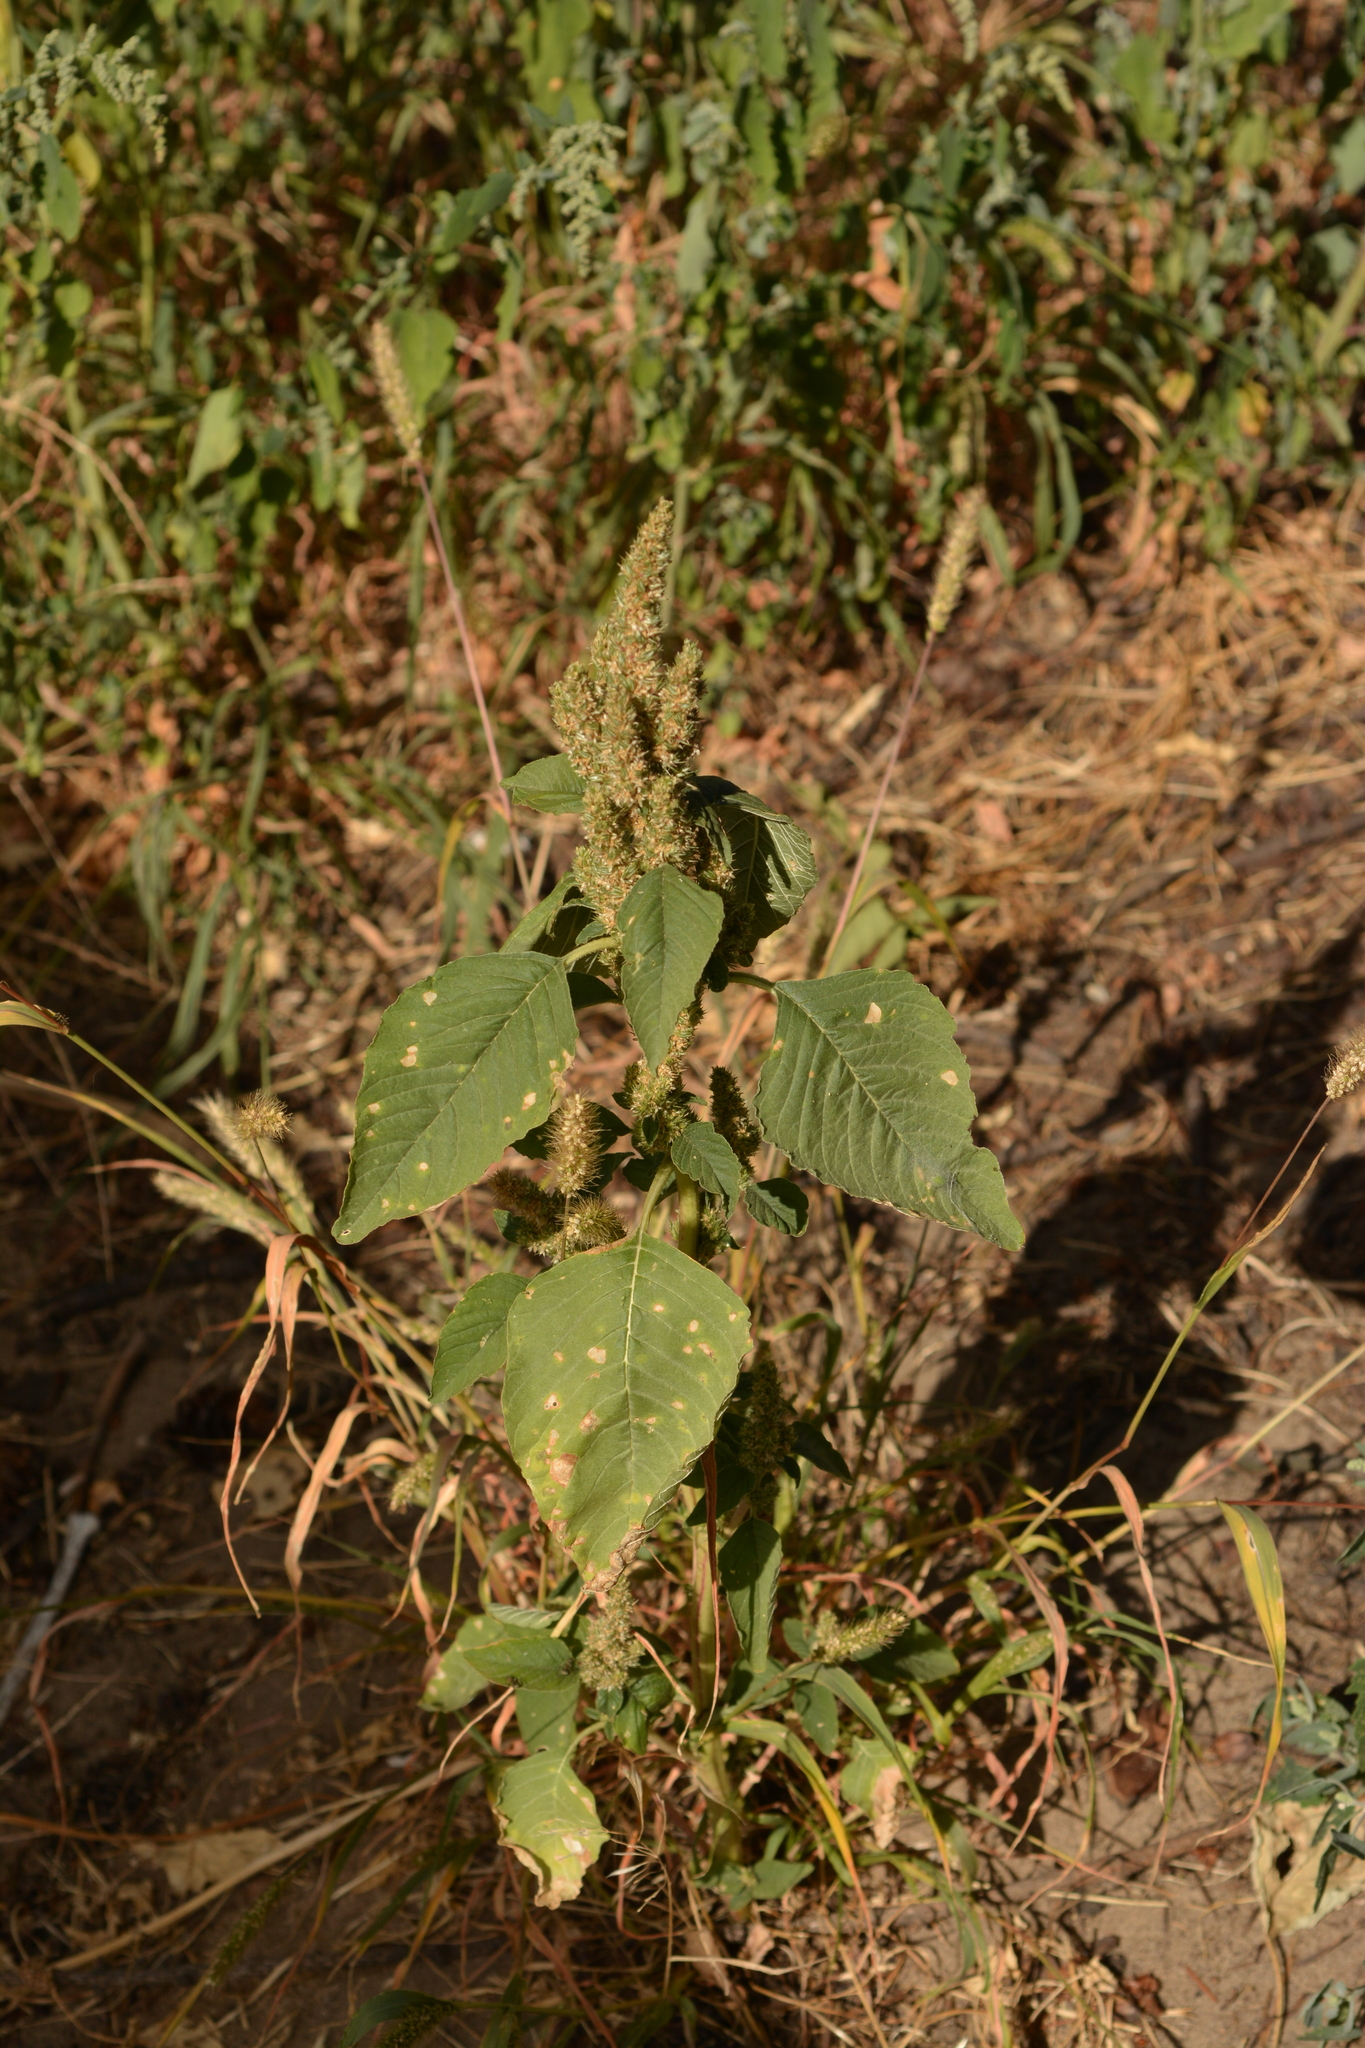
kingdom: Plantae
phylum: Tracheophyta
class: Magnoliopsida
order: Caryophyllales
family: Amaranthaceae
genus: Amaranthus
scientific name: Amaranthus retroflexus
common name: Redroot amaranth
